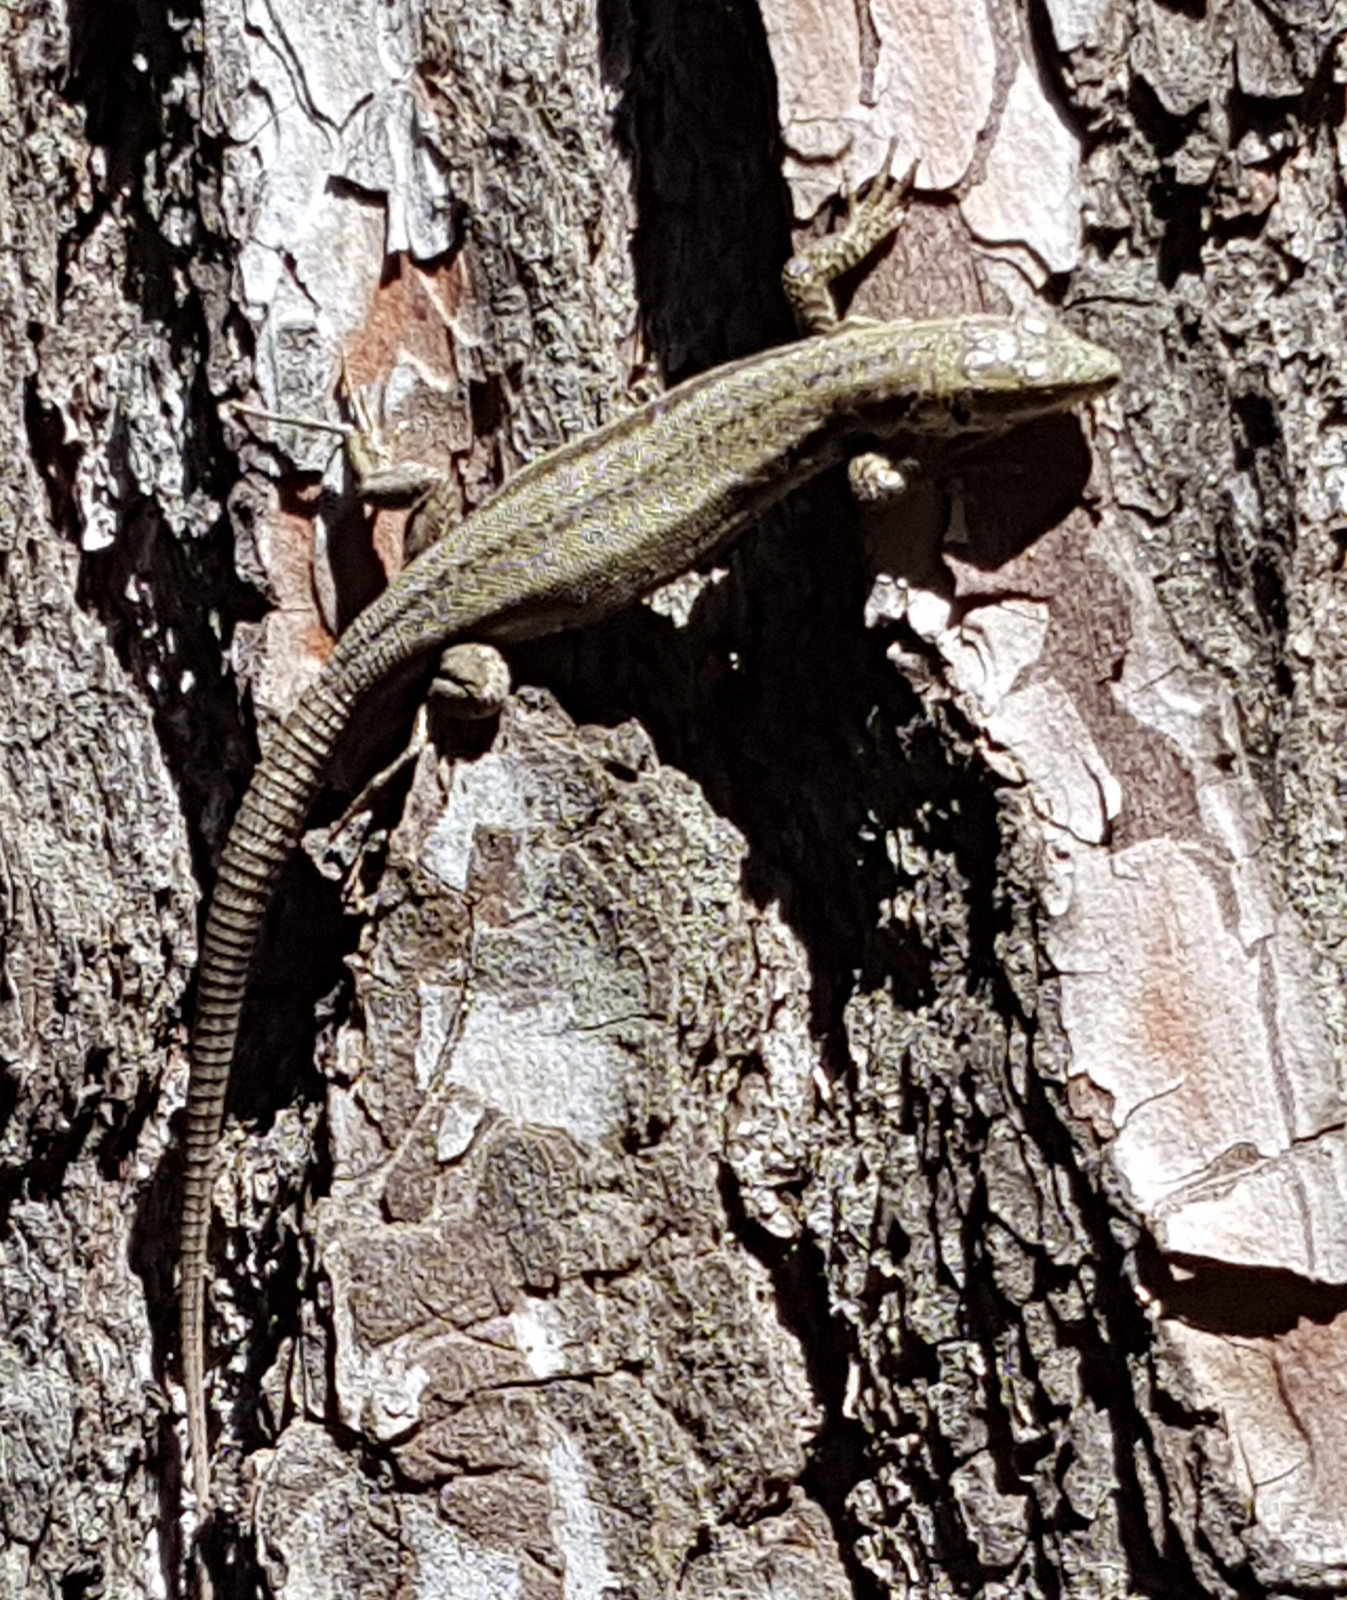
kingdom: Animalia
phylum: Chordata
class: Squamata
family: Lacertidae
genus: Podarcis
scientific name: Podarcis muralis
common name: Common wall lizard
